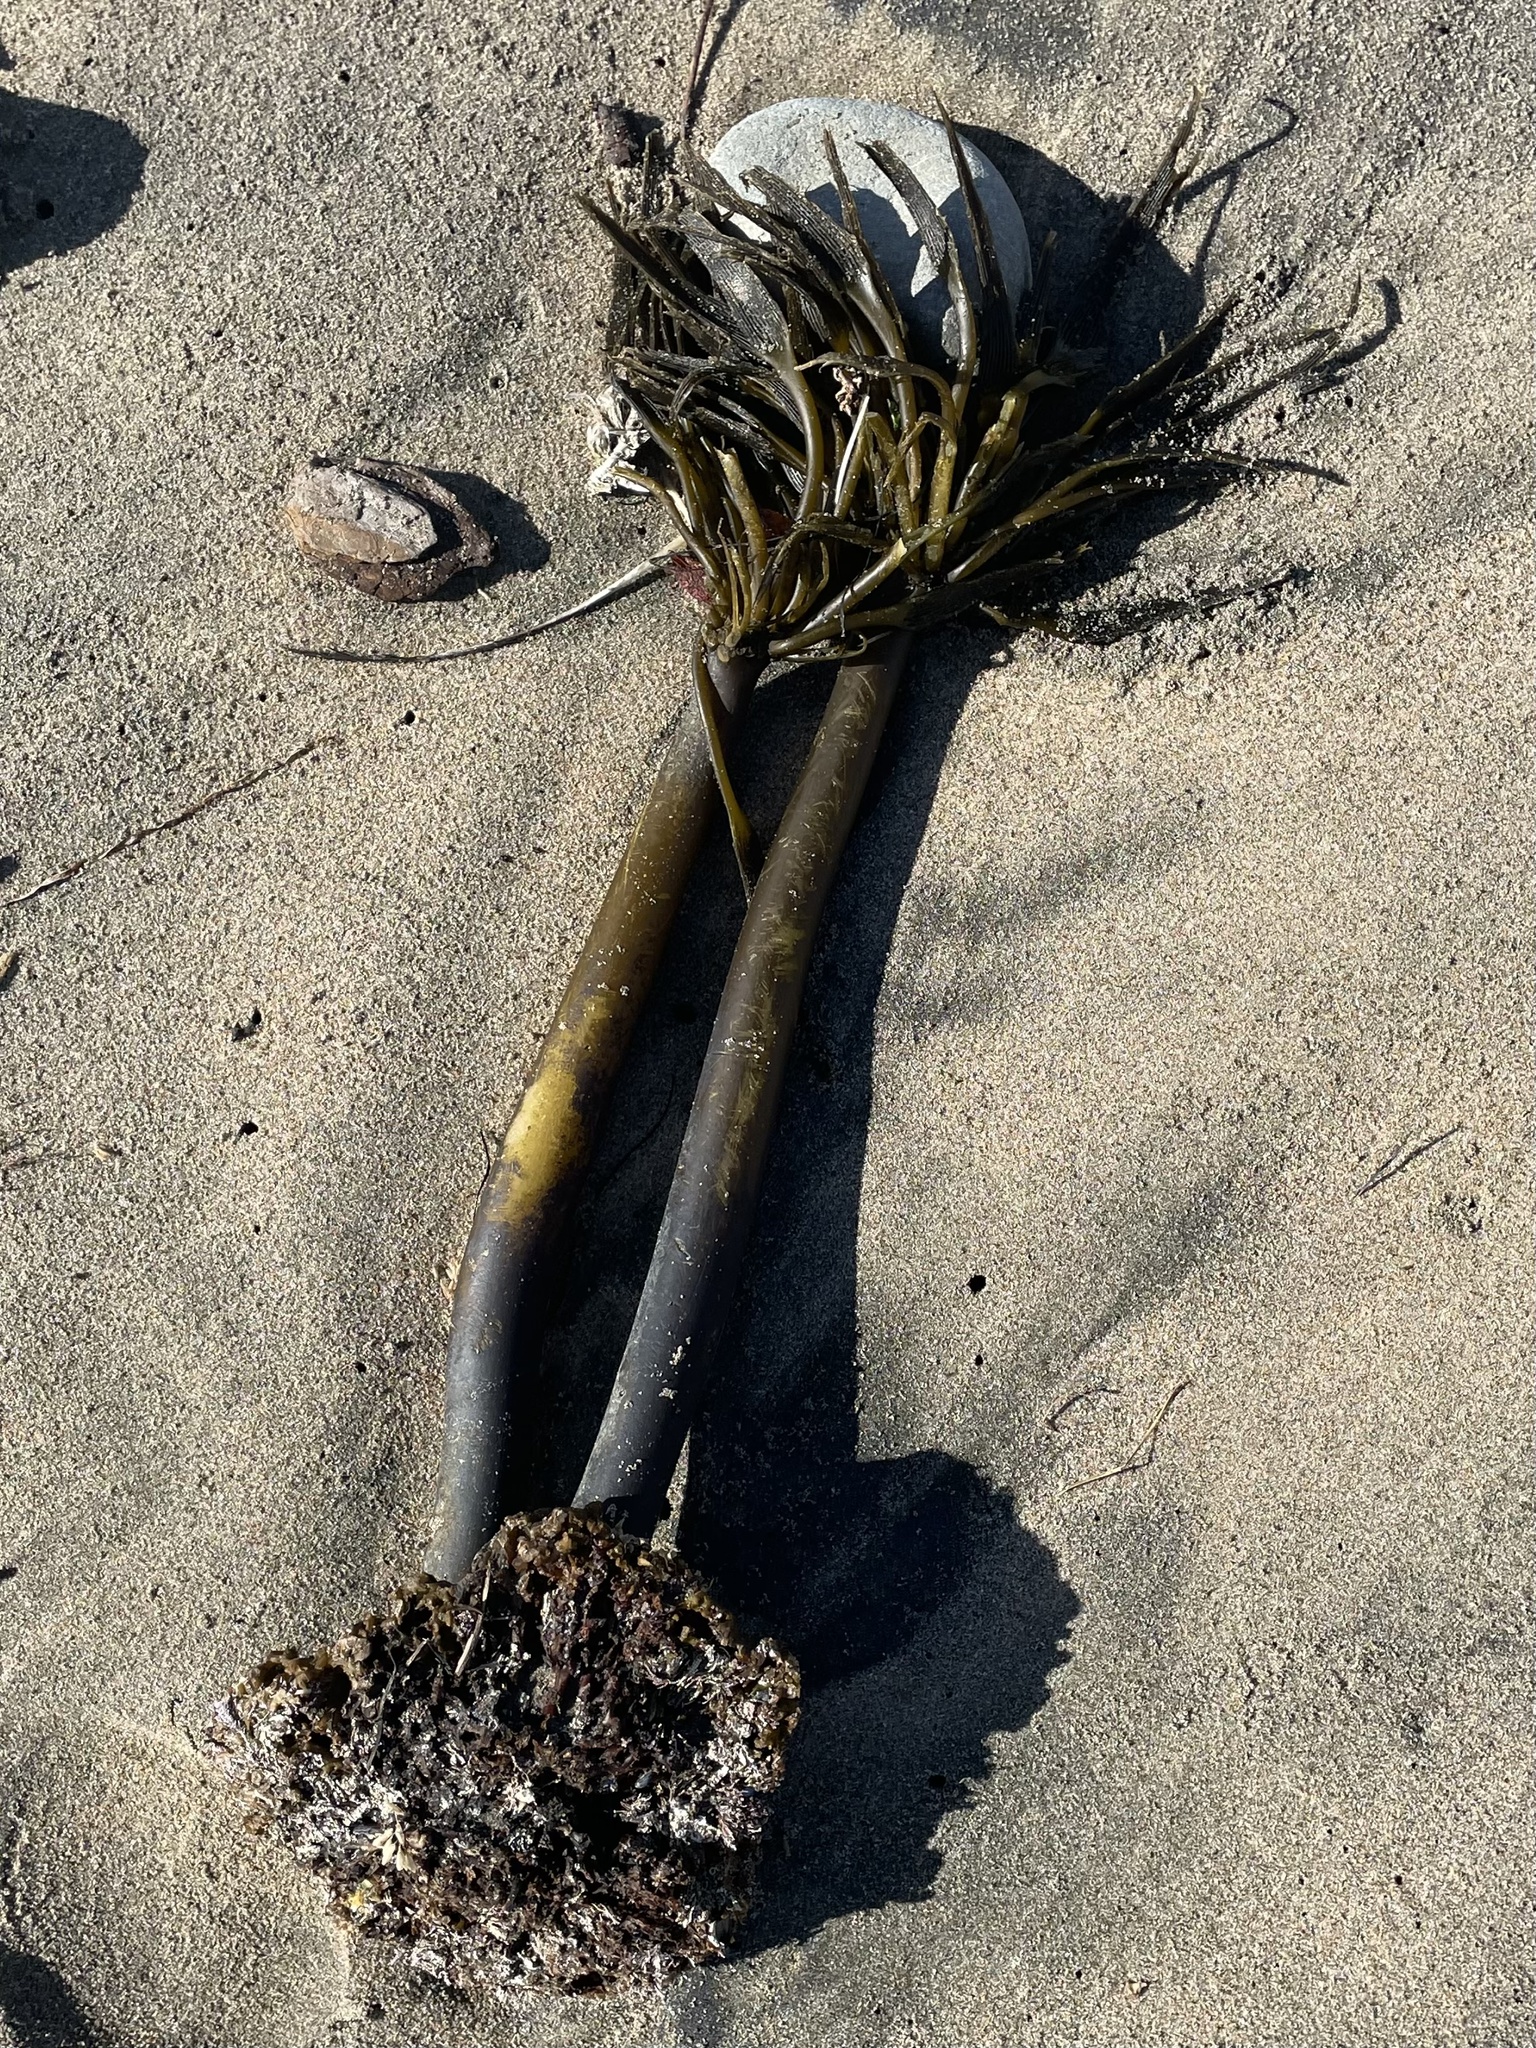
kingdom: Chromista
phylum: Ochrophyta
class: Phaeophyceae
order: Laminariales
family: Laminariaceae
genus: Postelsia
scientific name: Postelsia palmiformis
